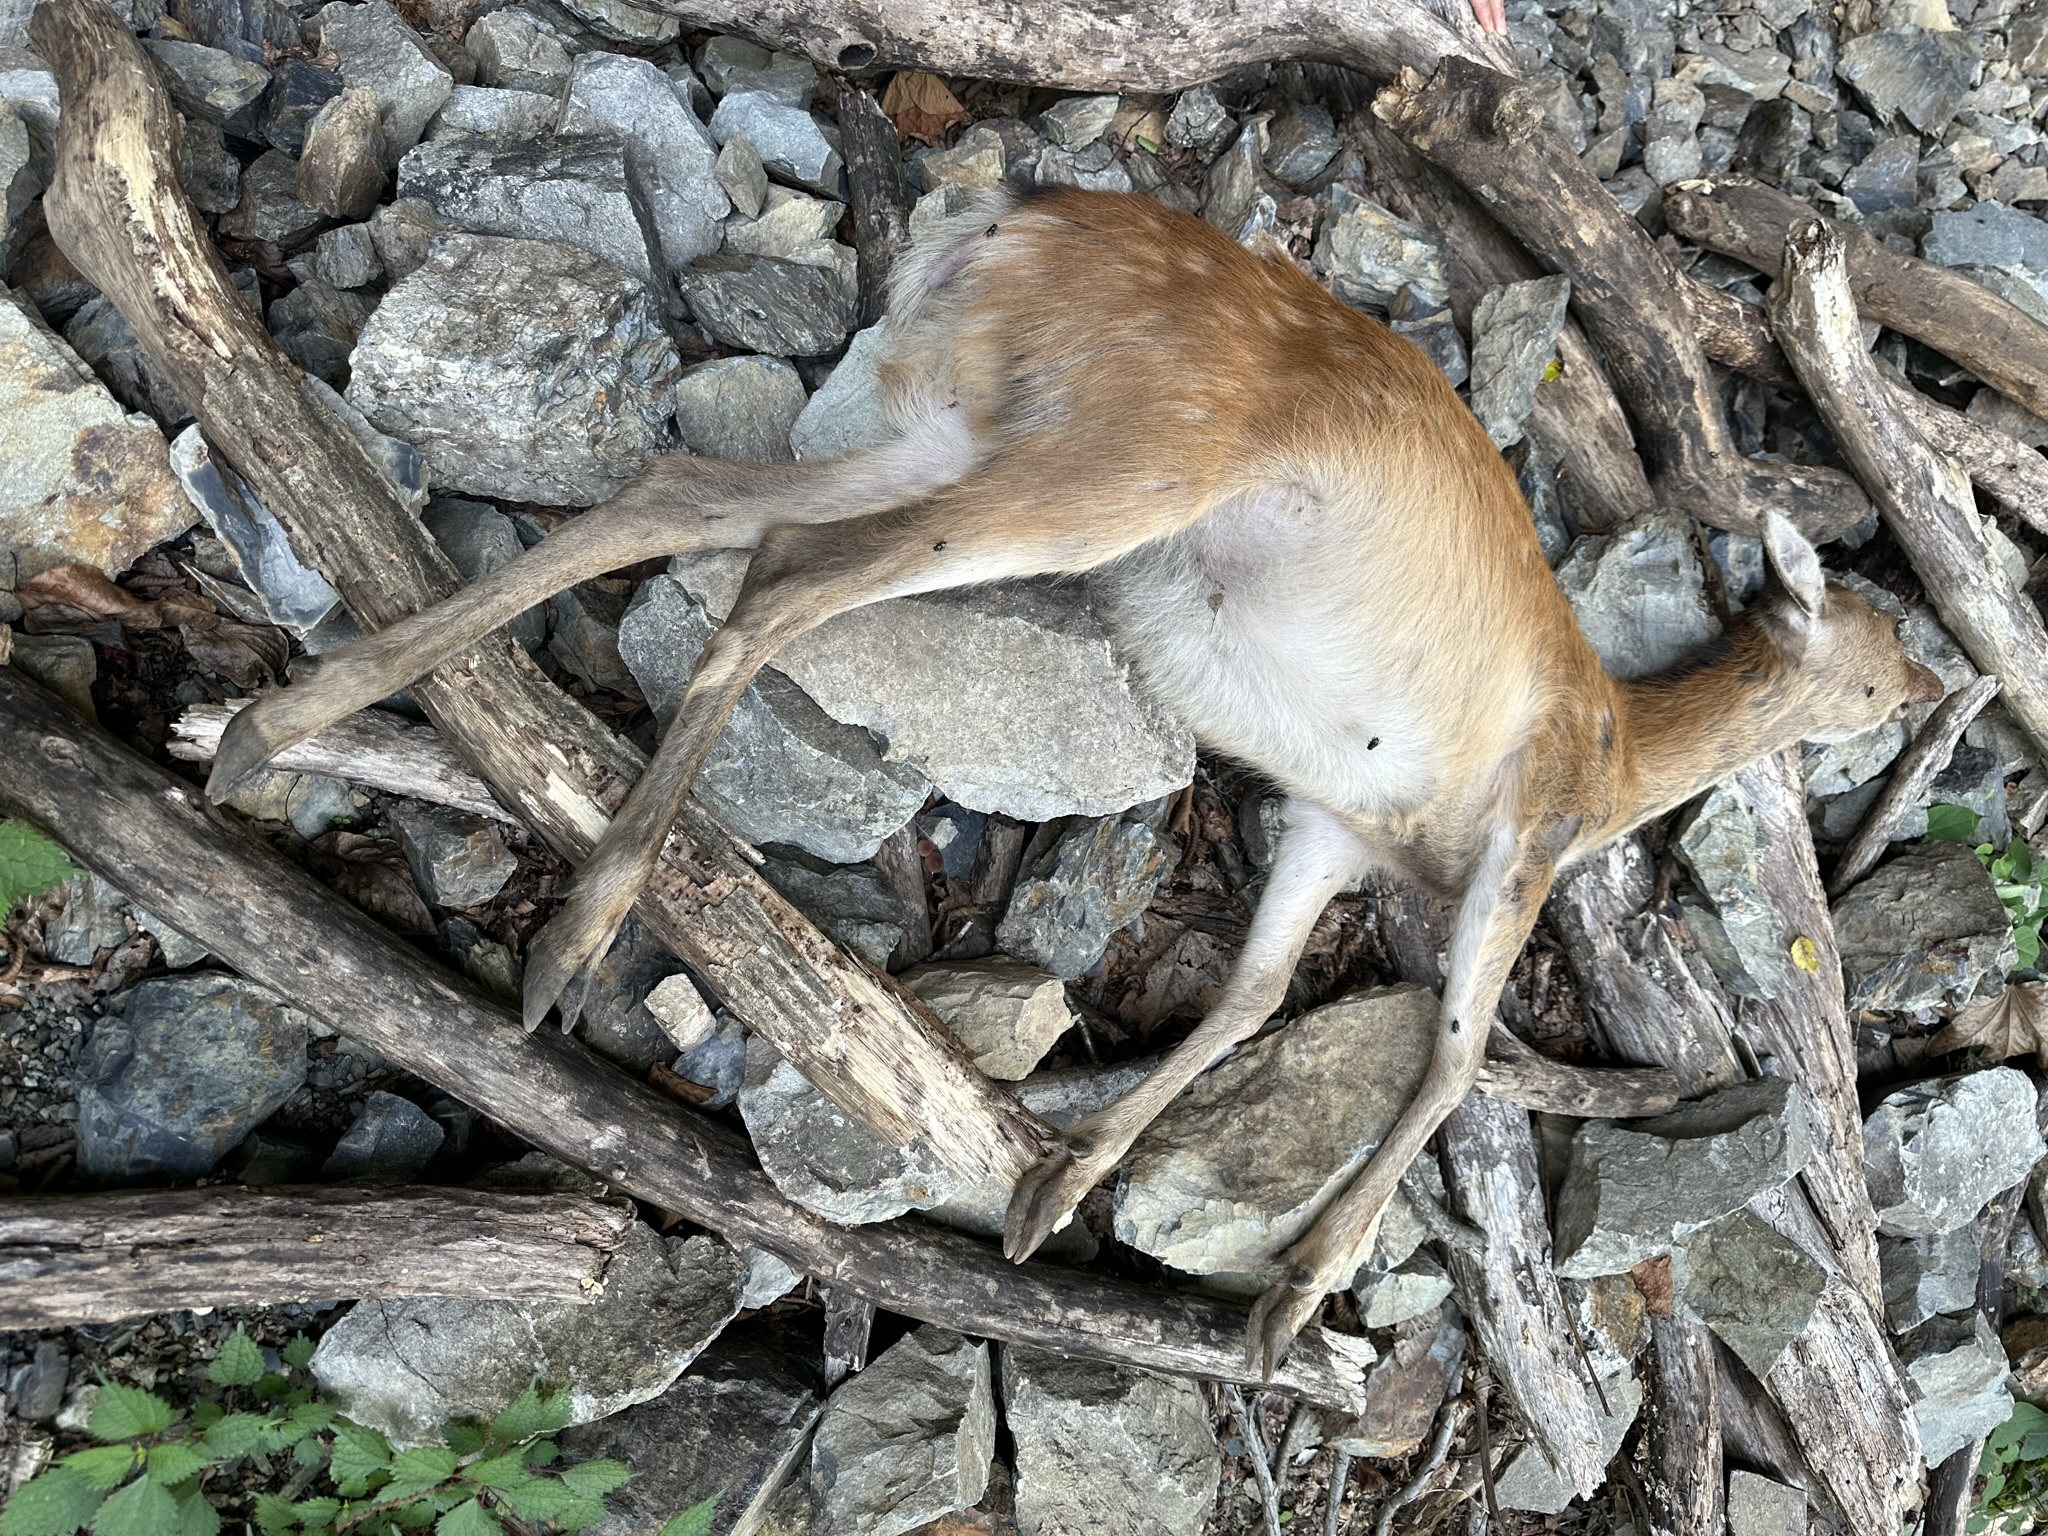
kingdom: Animalia
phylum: Chordata
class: Mammalia
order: Artiodactyla
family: Cervidae
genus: Cervus
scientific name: Cervus nippon
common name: Sika deer
